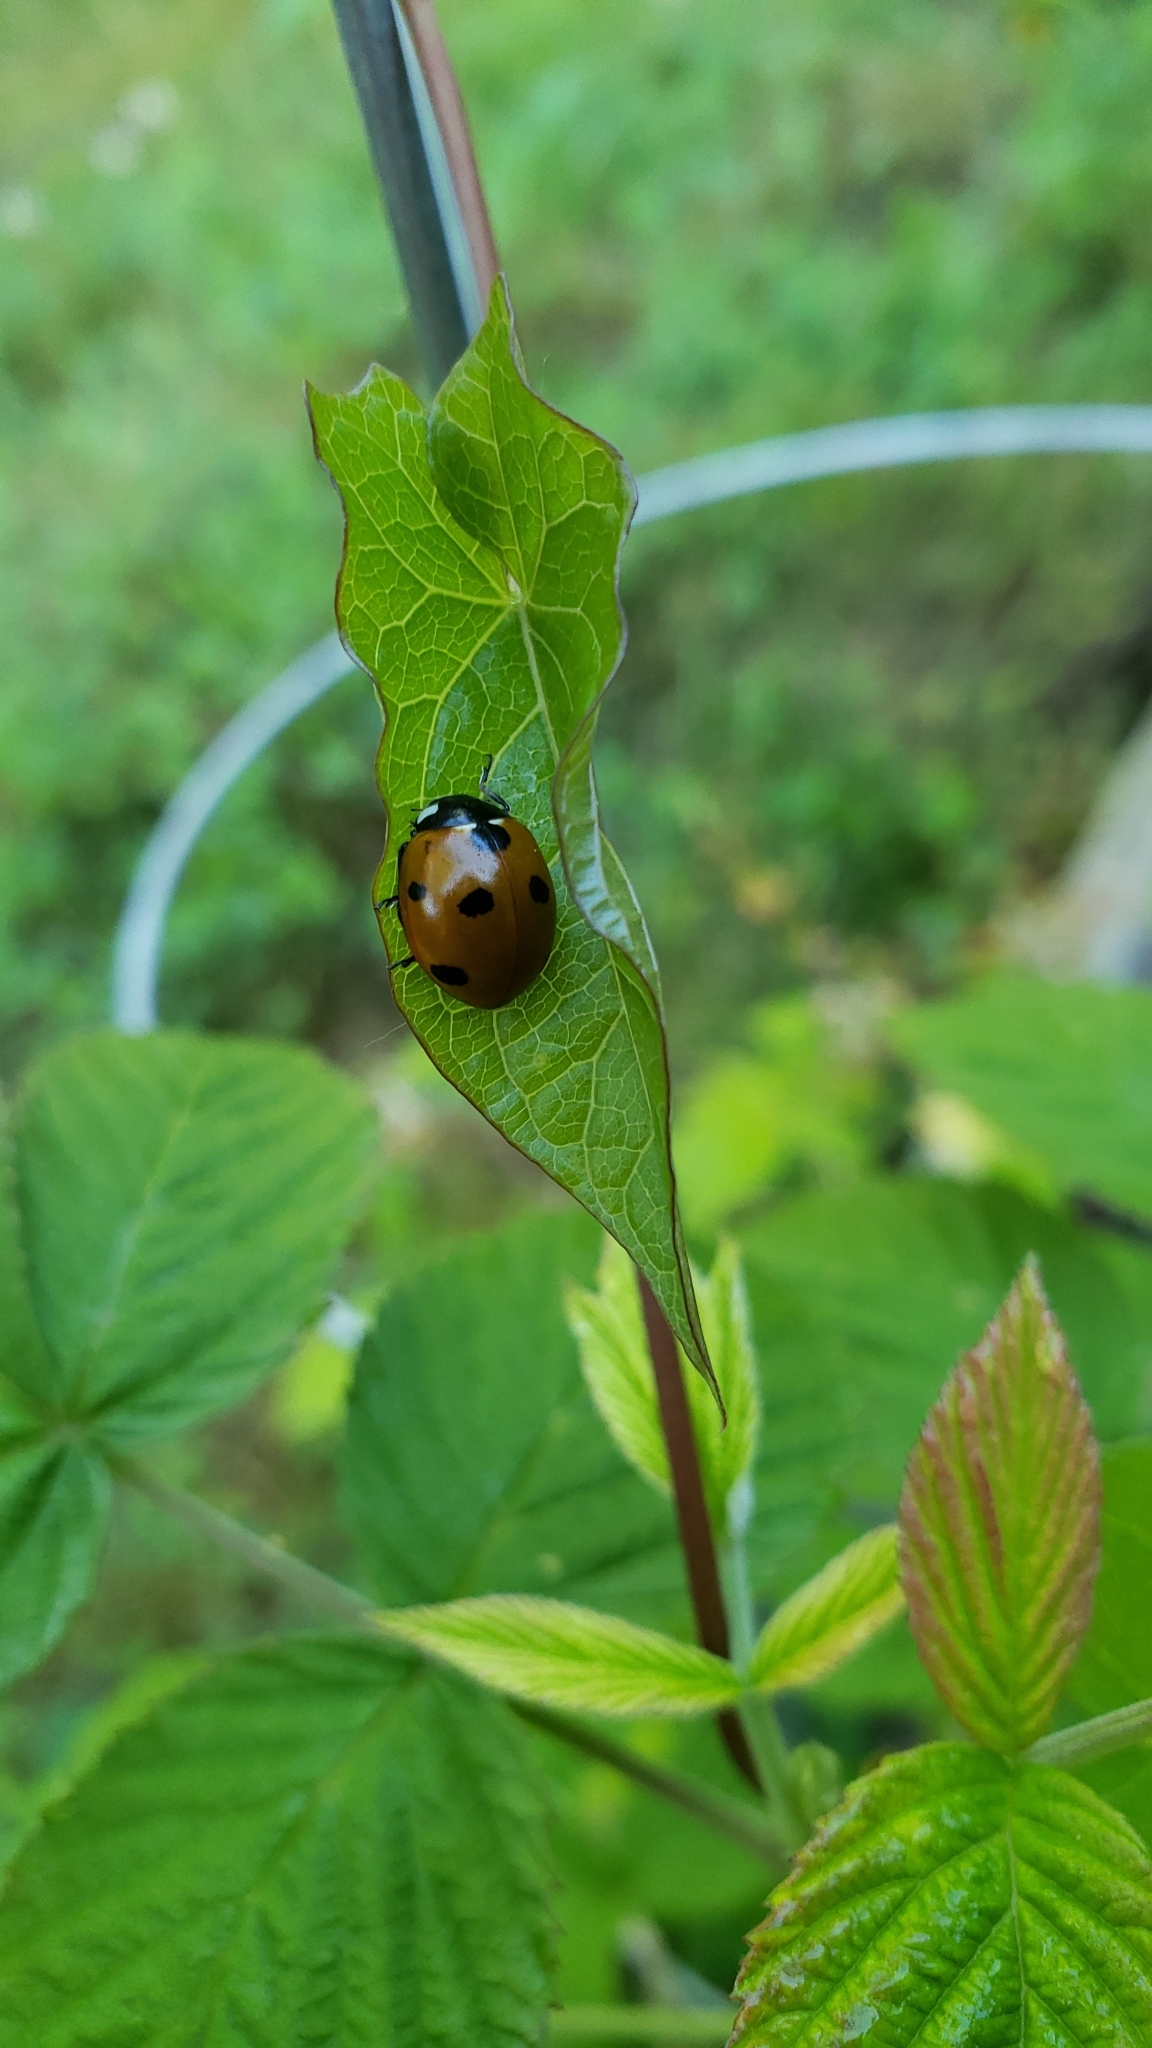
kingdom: Animalia
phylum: Arthropoda
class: Insecta
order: Coleoptera
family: Coccinellidae
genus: Coccinella
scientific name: Coccinella septempunctata
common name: Sevenspotted lady beetle
